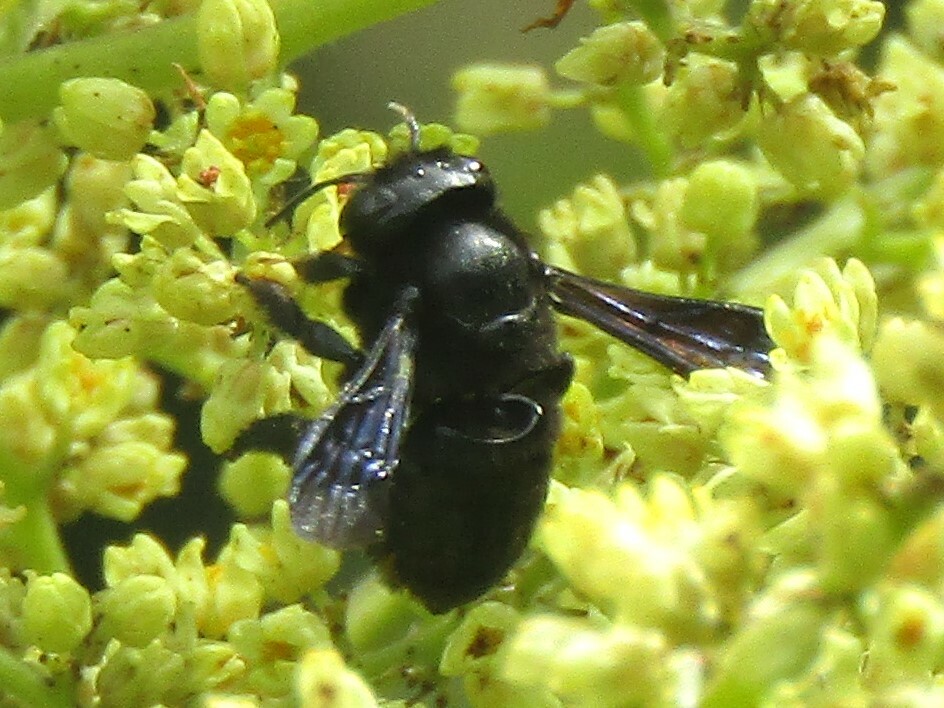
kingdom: Animalia
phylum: Arthropoda
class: Insecta
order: Hymenoptera
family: Megachilidae
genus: Megachile
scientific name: Megachile xylocopoides
